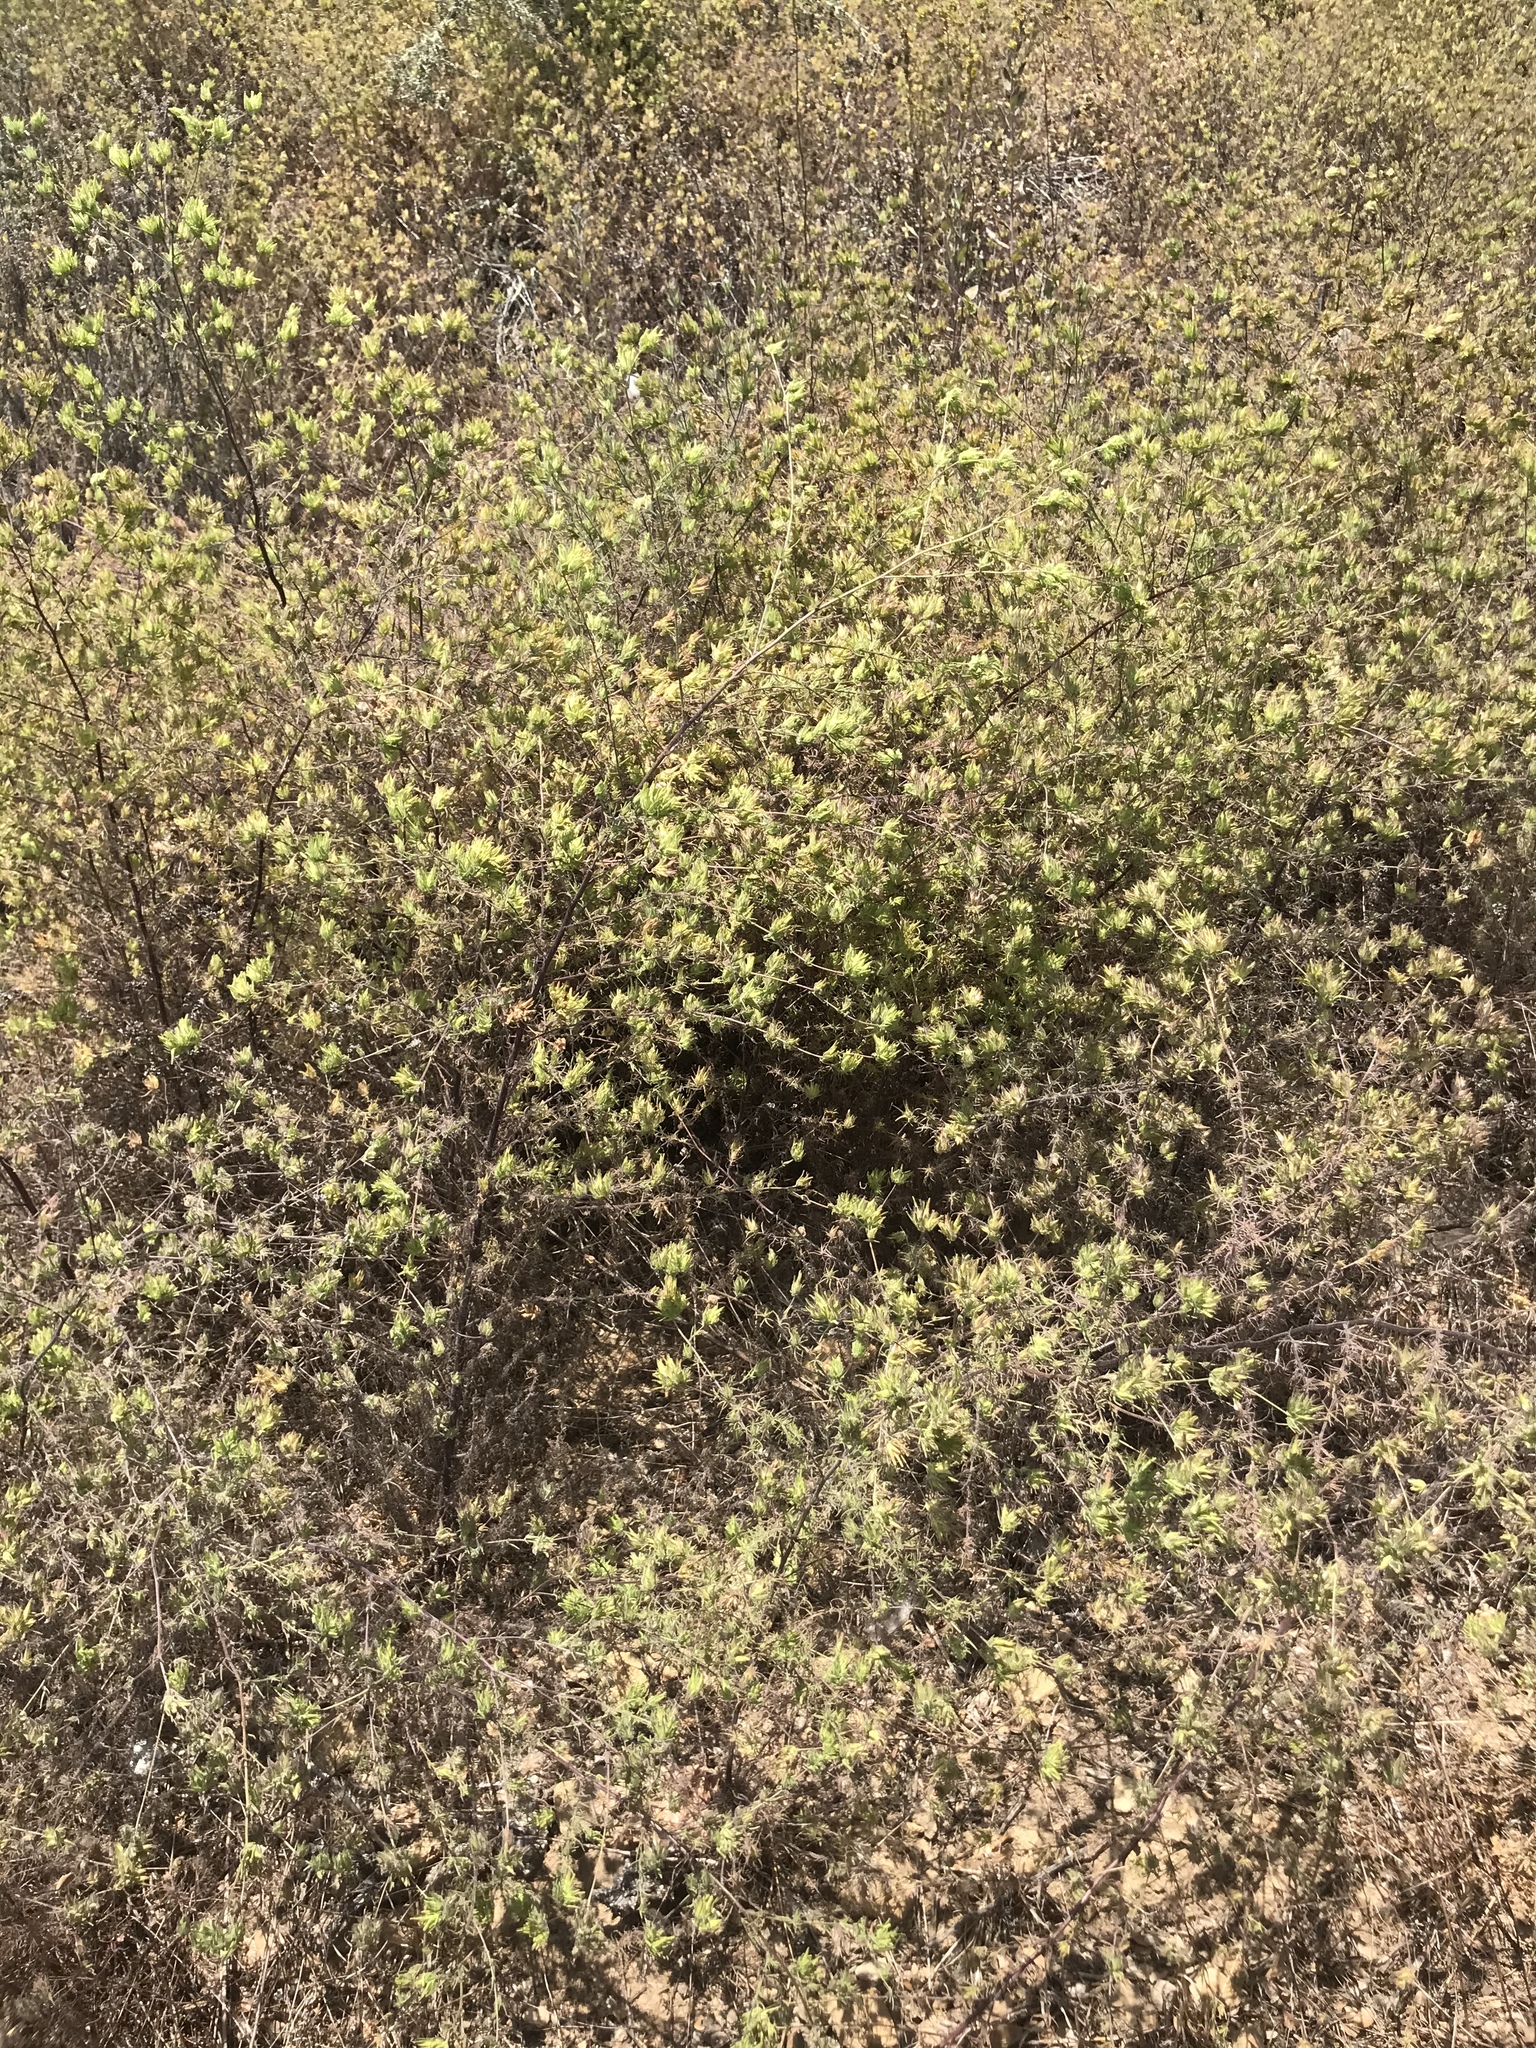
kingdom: Plantae
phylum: Tracheophyta
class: Magnoliopsida
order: Lamiales
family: Orobanchaceae
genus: Cordylanthus
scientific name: Cordylanthus rigidus
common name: Stiff-branch bird's-beak
